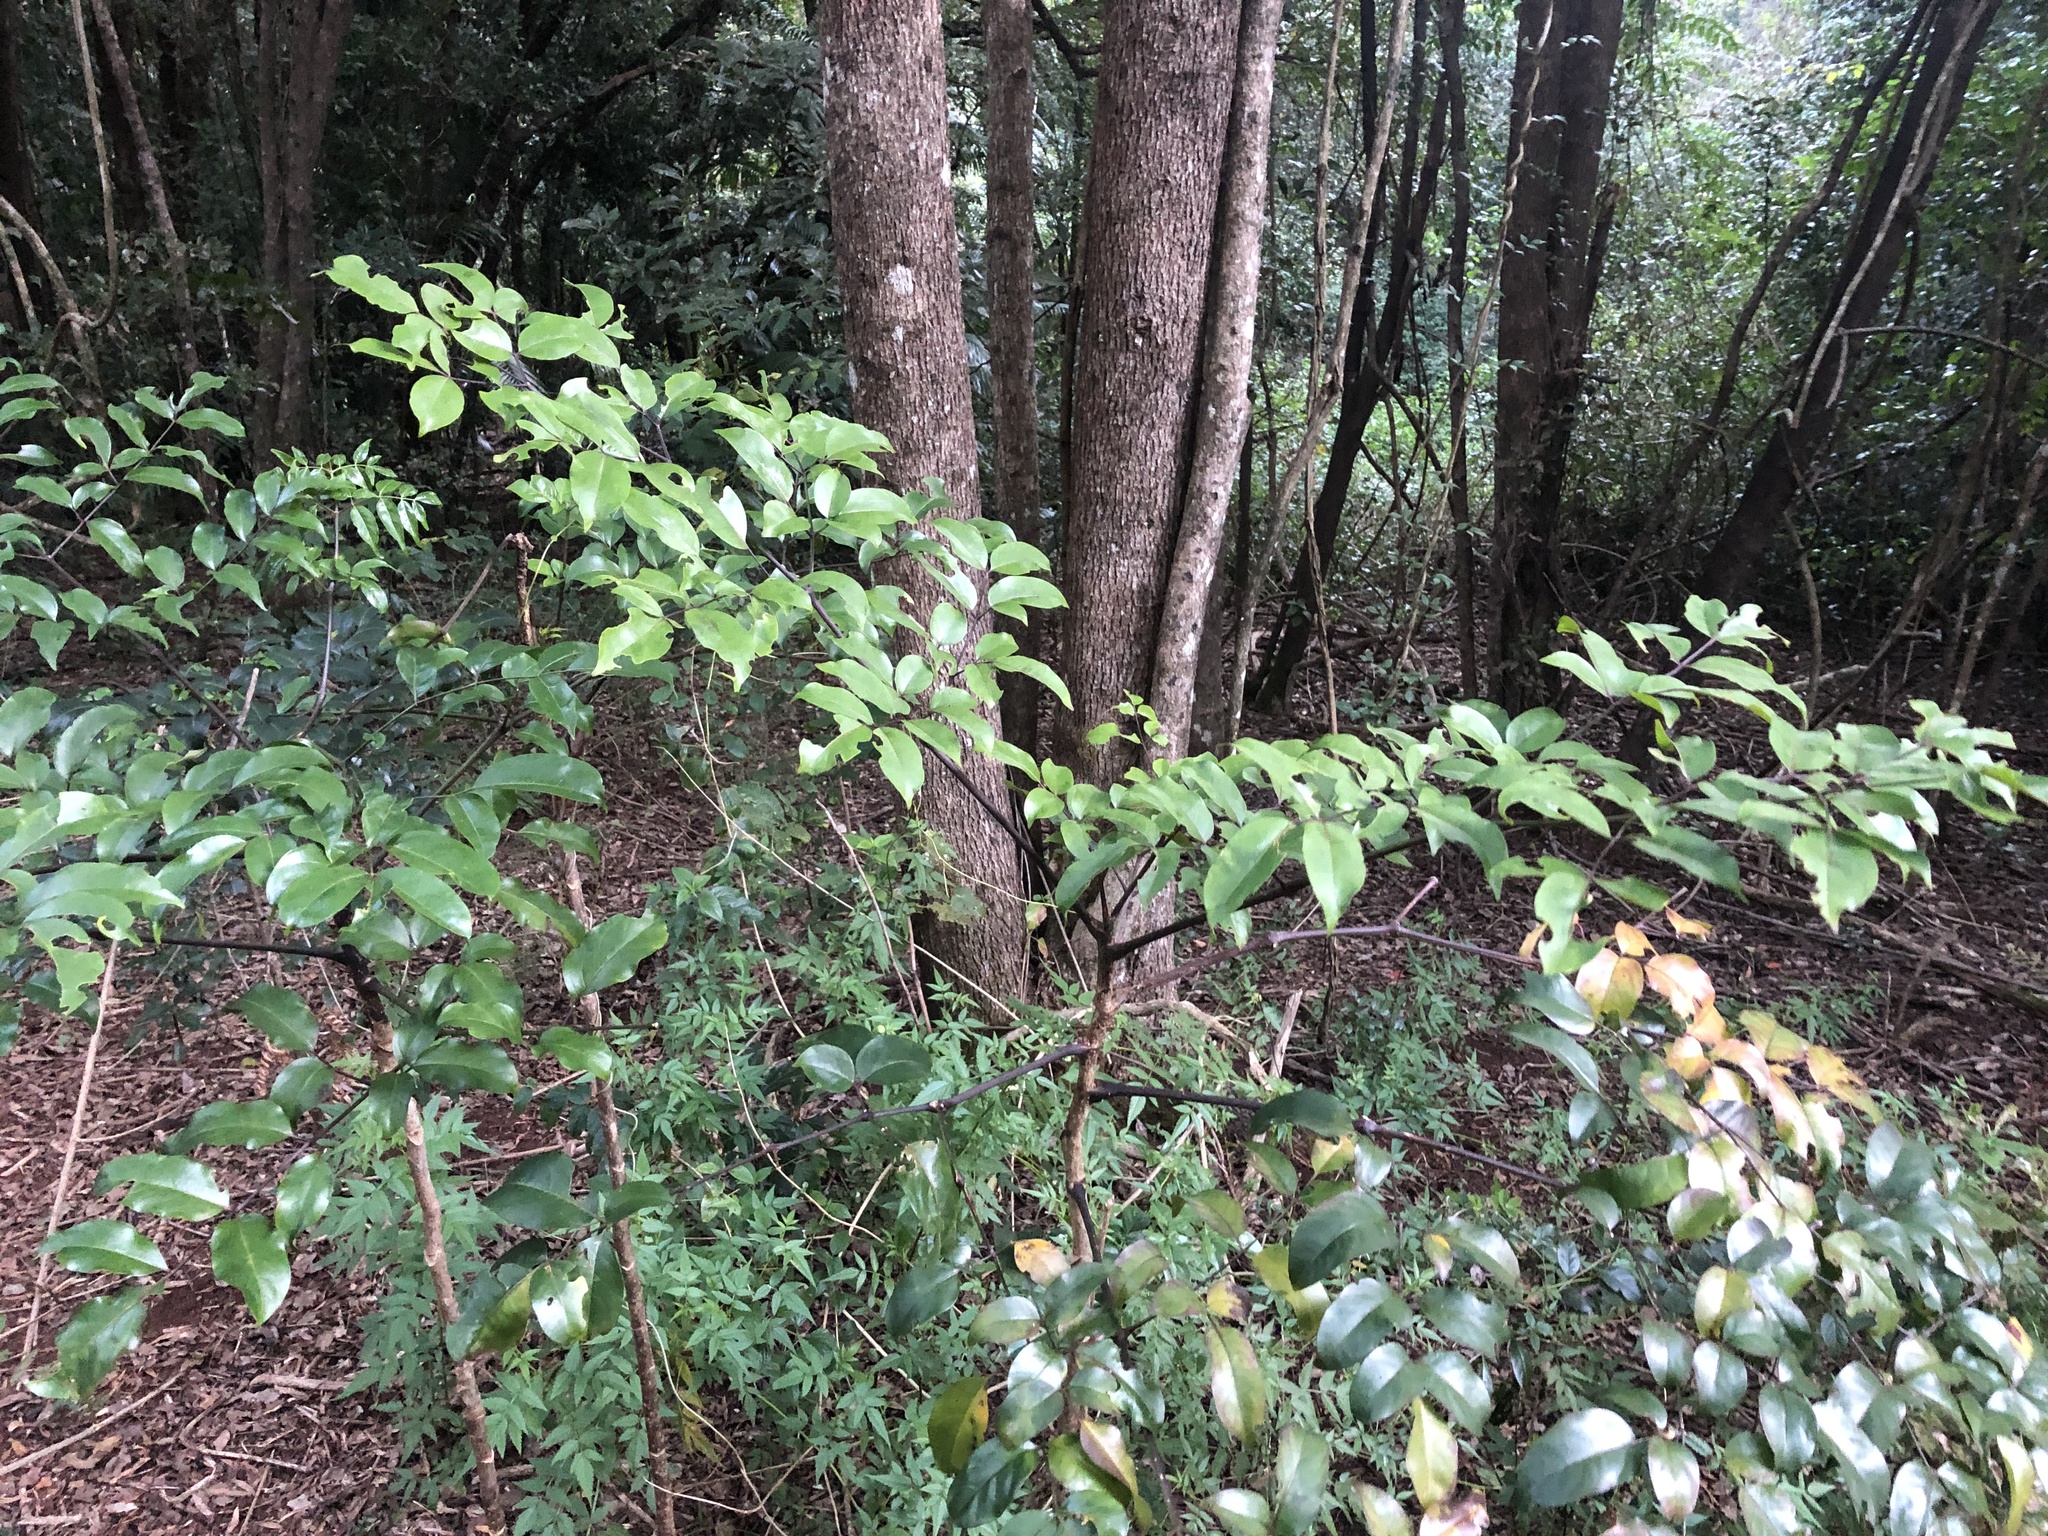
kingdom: Plantae
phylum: Tracheophyta
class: Magnoliopsida
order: Apiales
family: Araliaceae
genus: Polyscias
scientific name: Polyscias elegans
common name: Mowbulan whitewood
